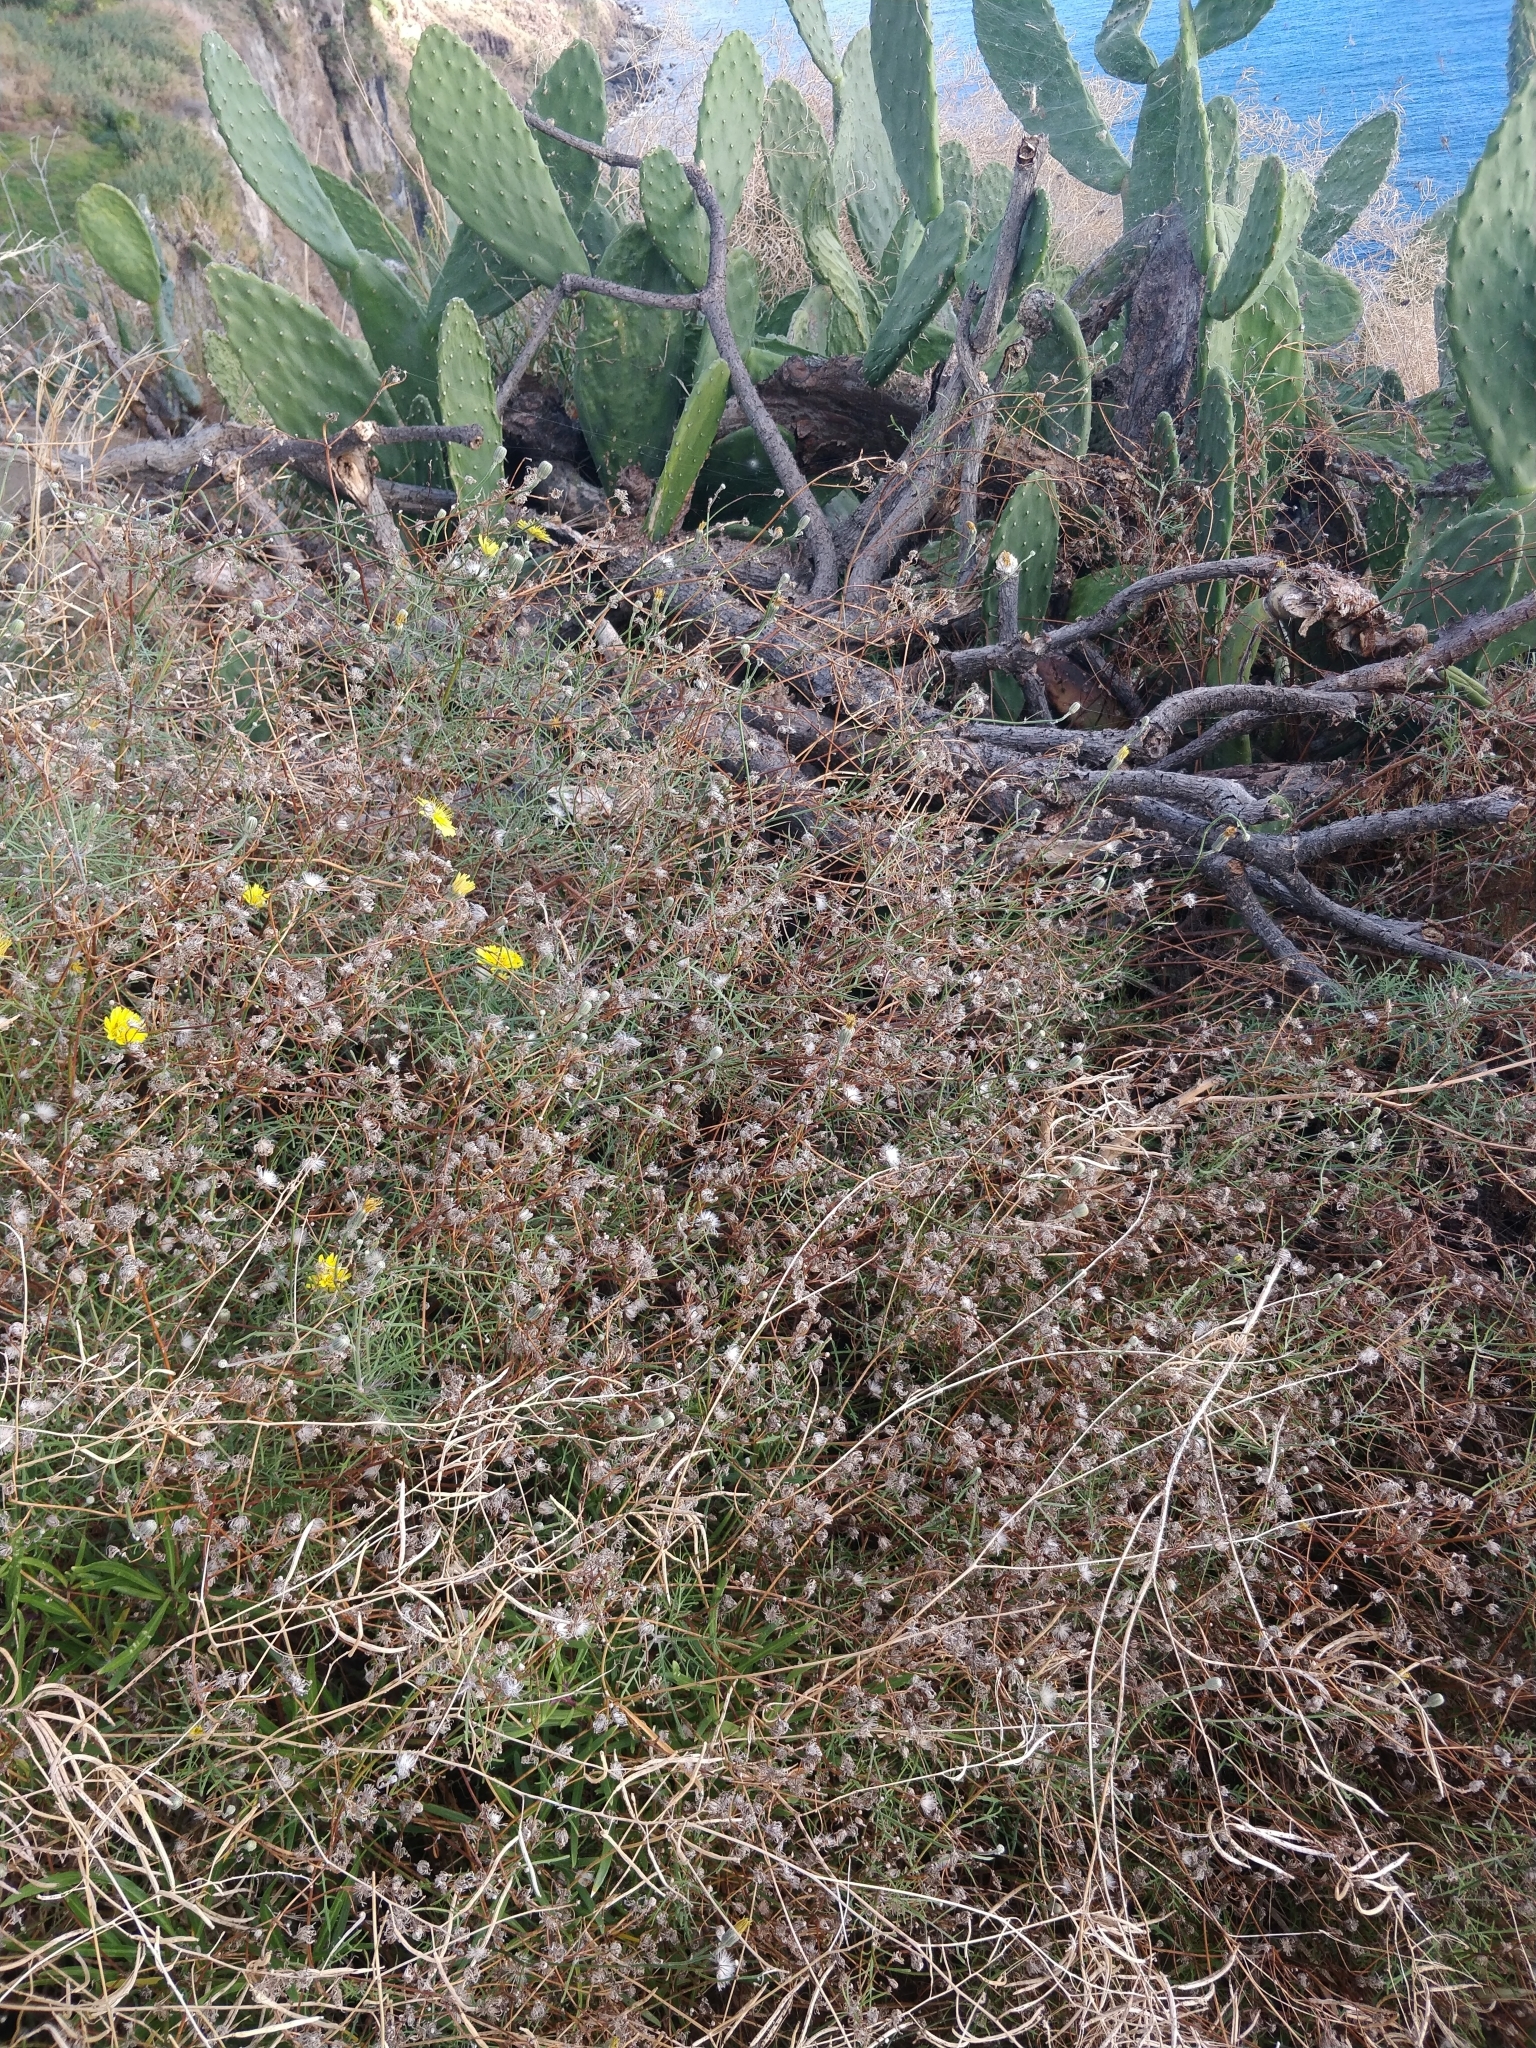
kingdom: Plantae
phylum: Tracheophyta
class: Magnoliopsida
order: Asterales
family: Asteraceae
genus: Tolpis
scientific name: Tolpis succulenta
